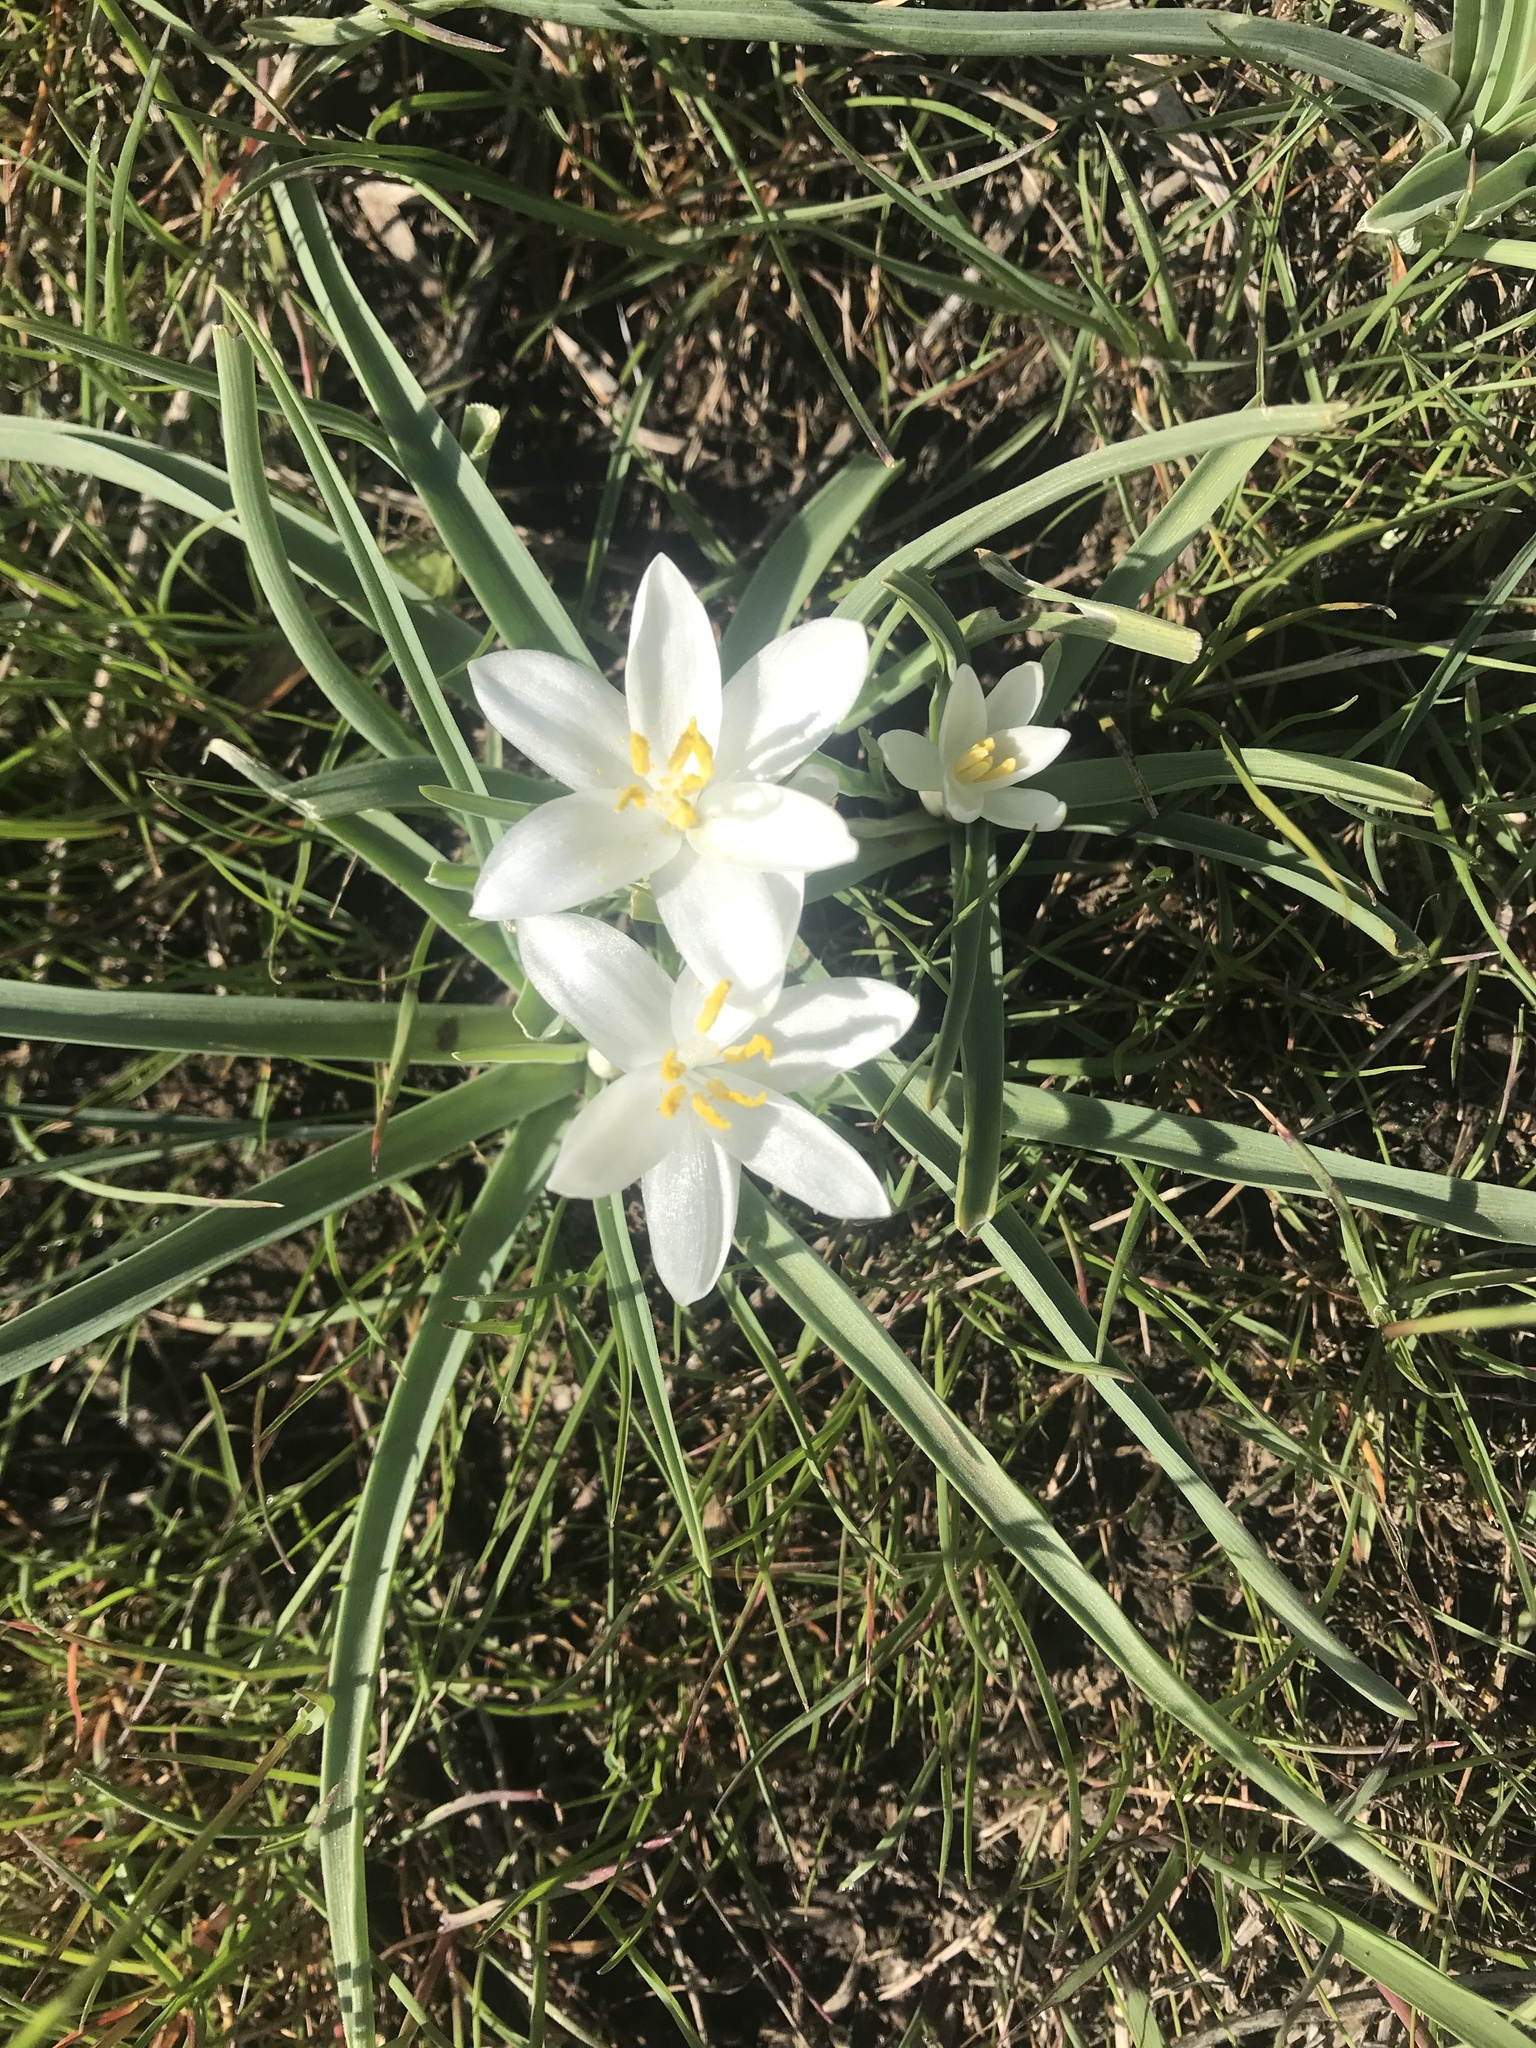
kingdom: Plantae
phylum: Tracheophyta
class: Liliopsida
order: Asparagales
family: Asparagaceae
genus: Leucocrinum
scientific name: Leucocrinum montanum
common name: Mountain-lily
